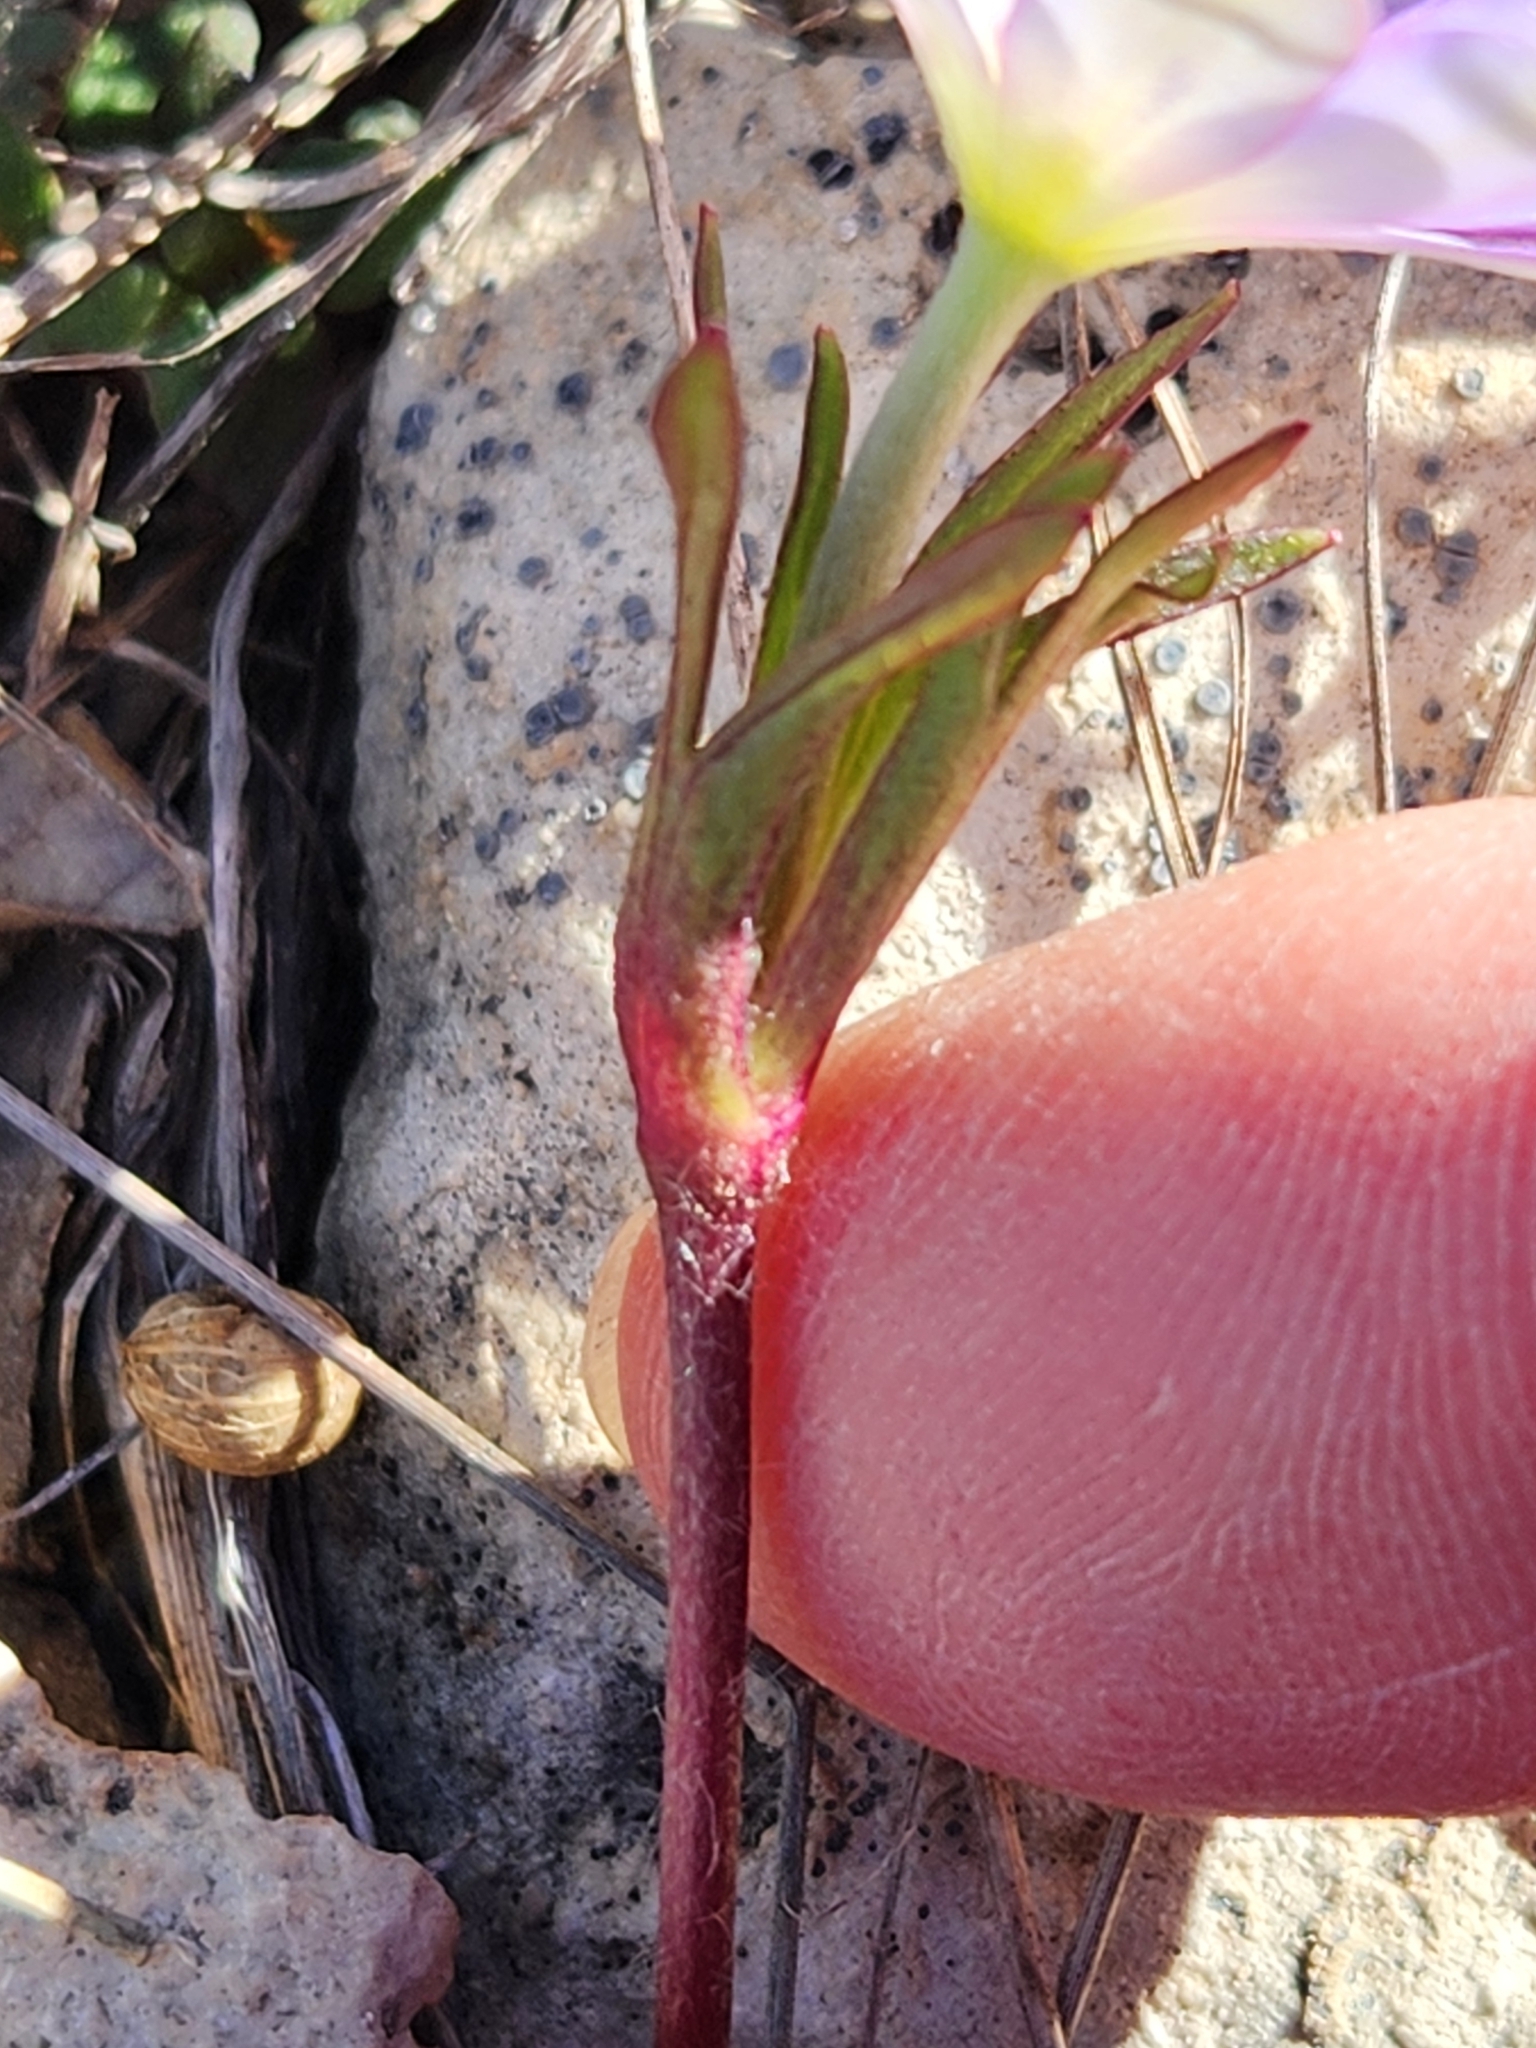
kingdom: Plantae
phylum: Tracheophyta
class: Magnoliopsida
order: Ranunculales
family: Ranunculaceae
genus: Anemone
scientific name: Anemone berlandieri
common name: Ten-petal anemone
